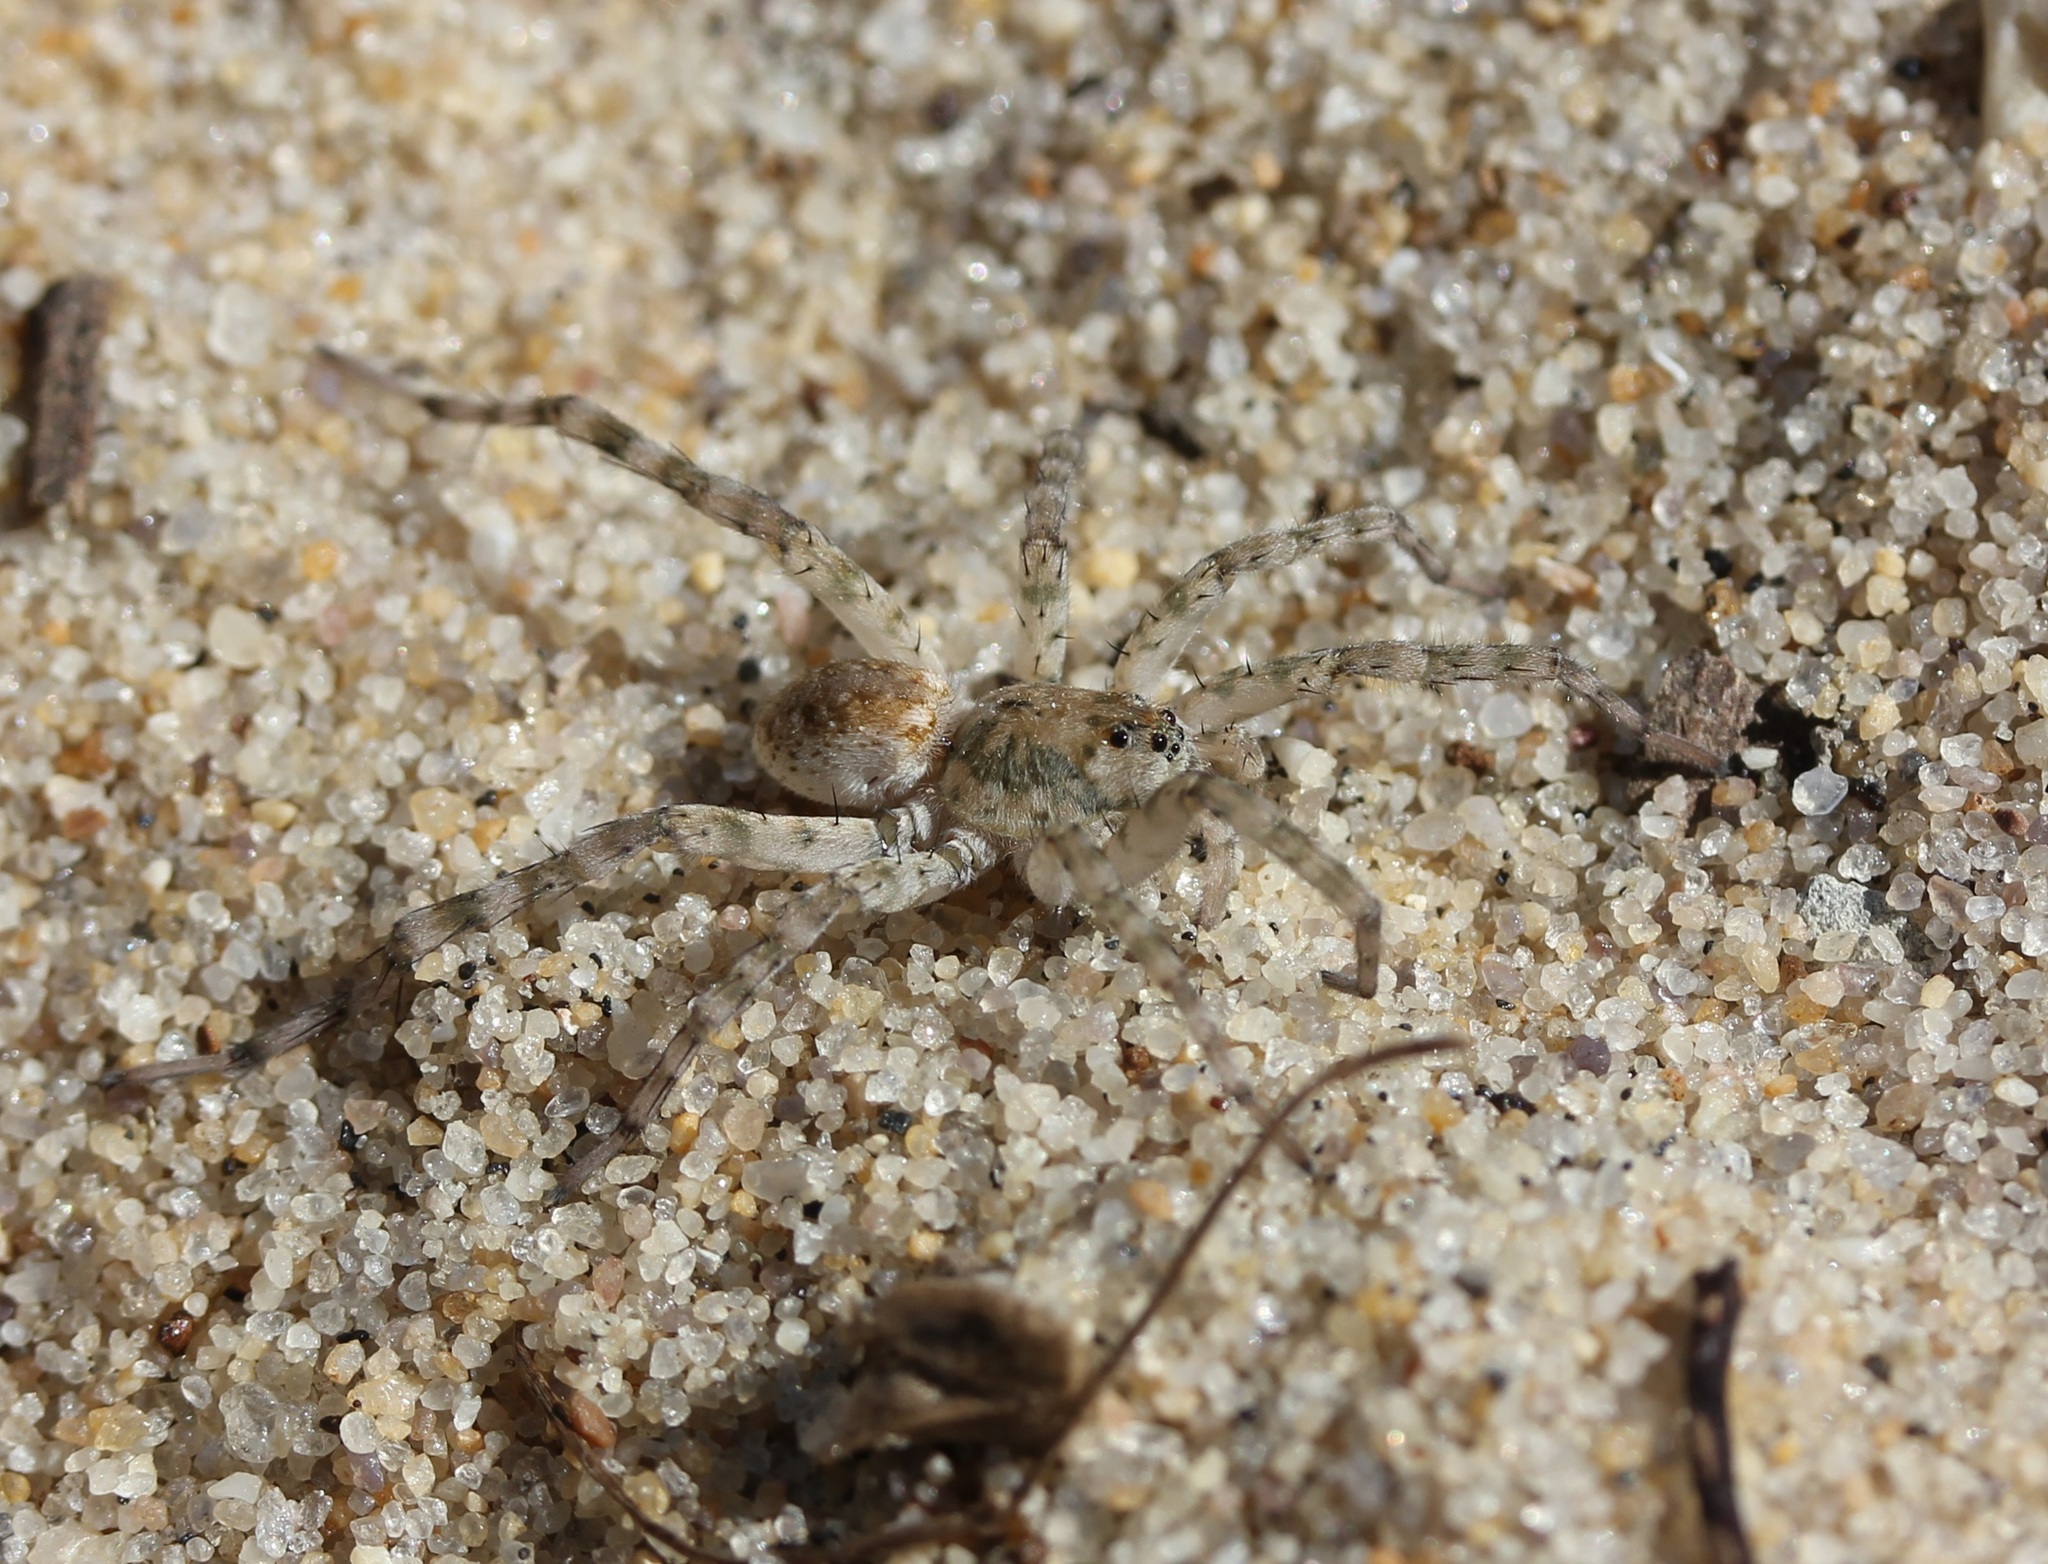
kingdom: Animalia
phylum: Arthropoda
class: Arachnida
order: Araneae
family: Lycosidae
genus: Arctosa
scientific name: Arctosa littoralis
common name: Wolf spiders
